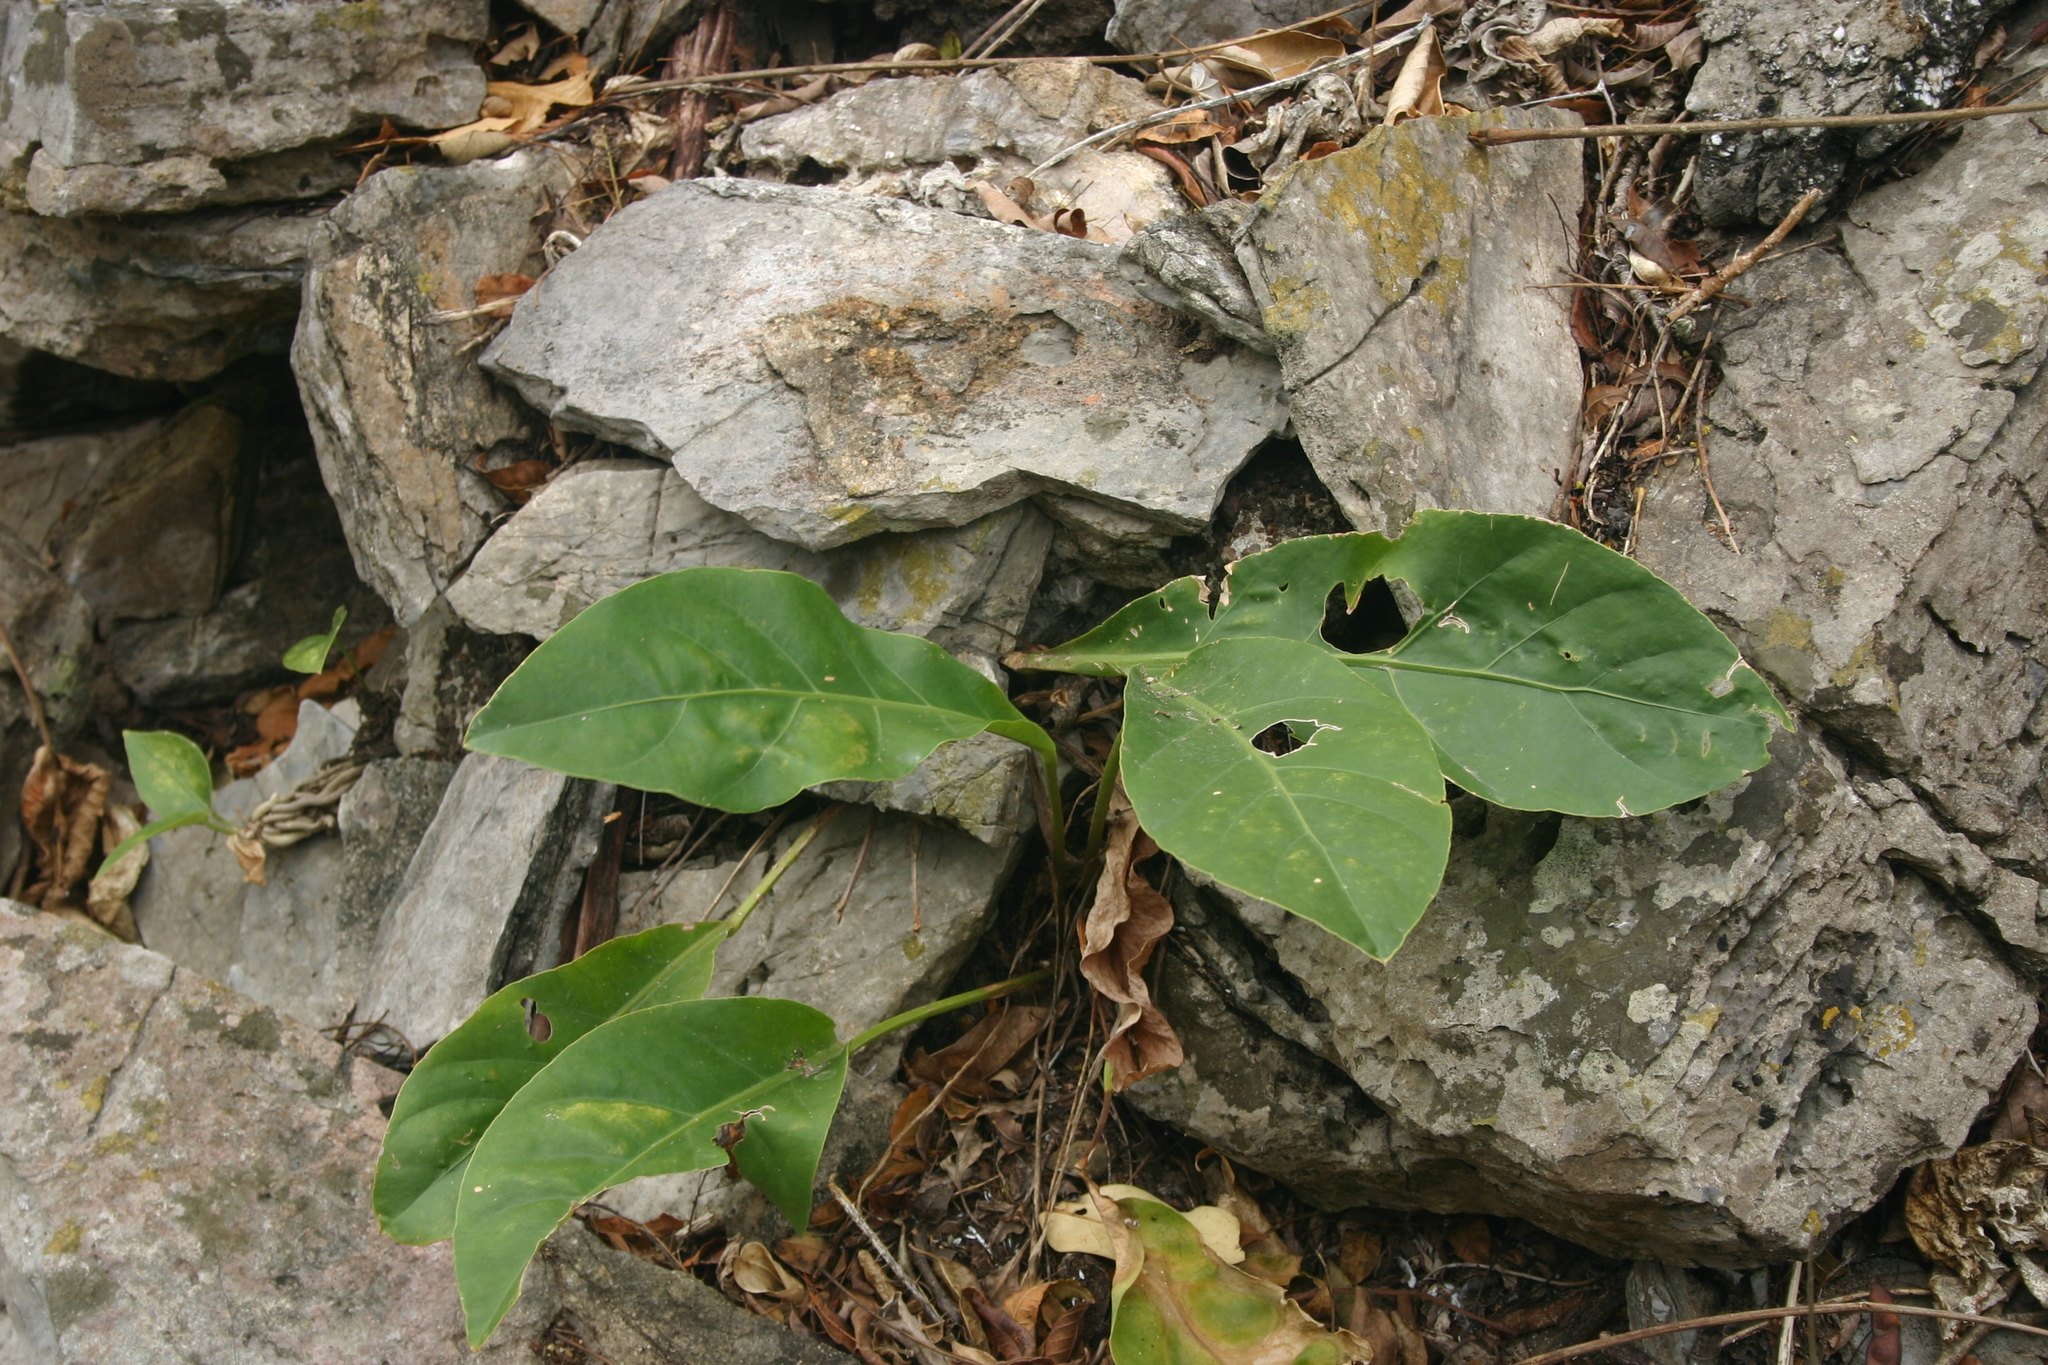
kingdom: Plantae
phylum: Tracheophyta
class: Liliopsida
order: Alismatales
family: Araceae
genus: Anthurium
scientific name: Anthurium schlechtendalii
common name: Laceleaf
